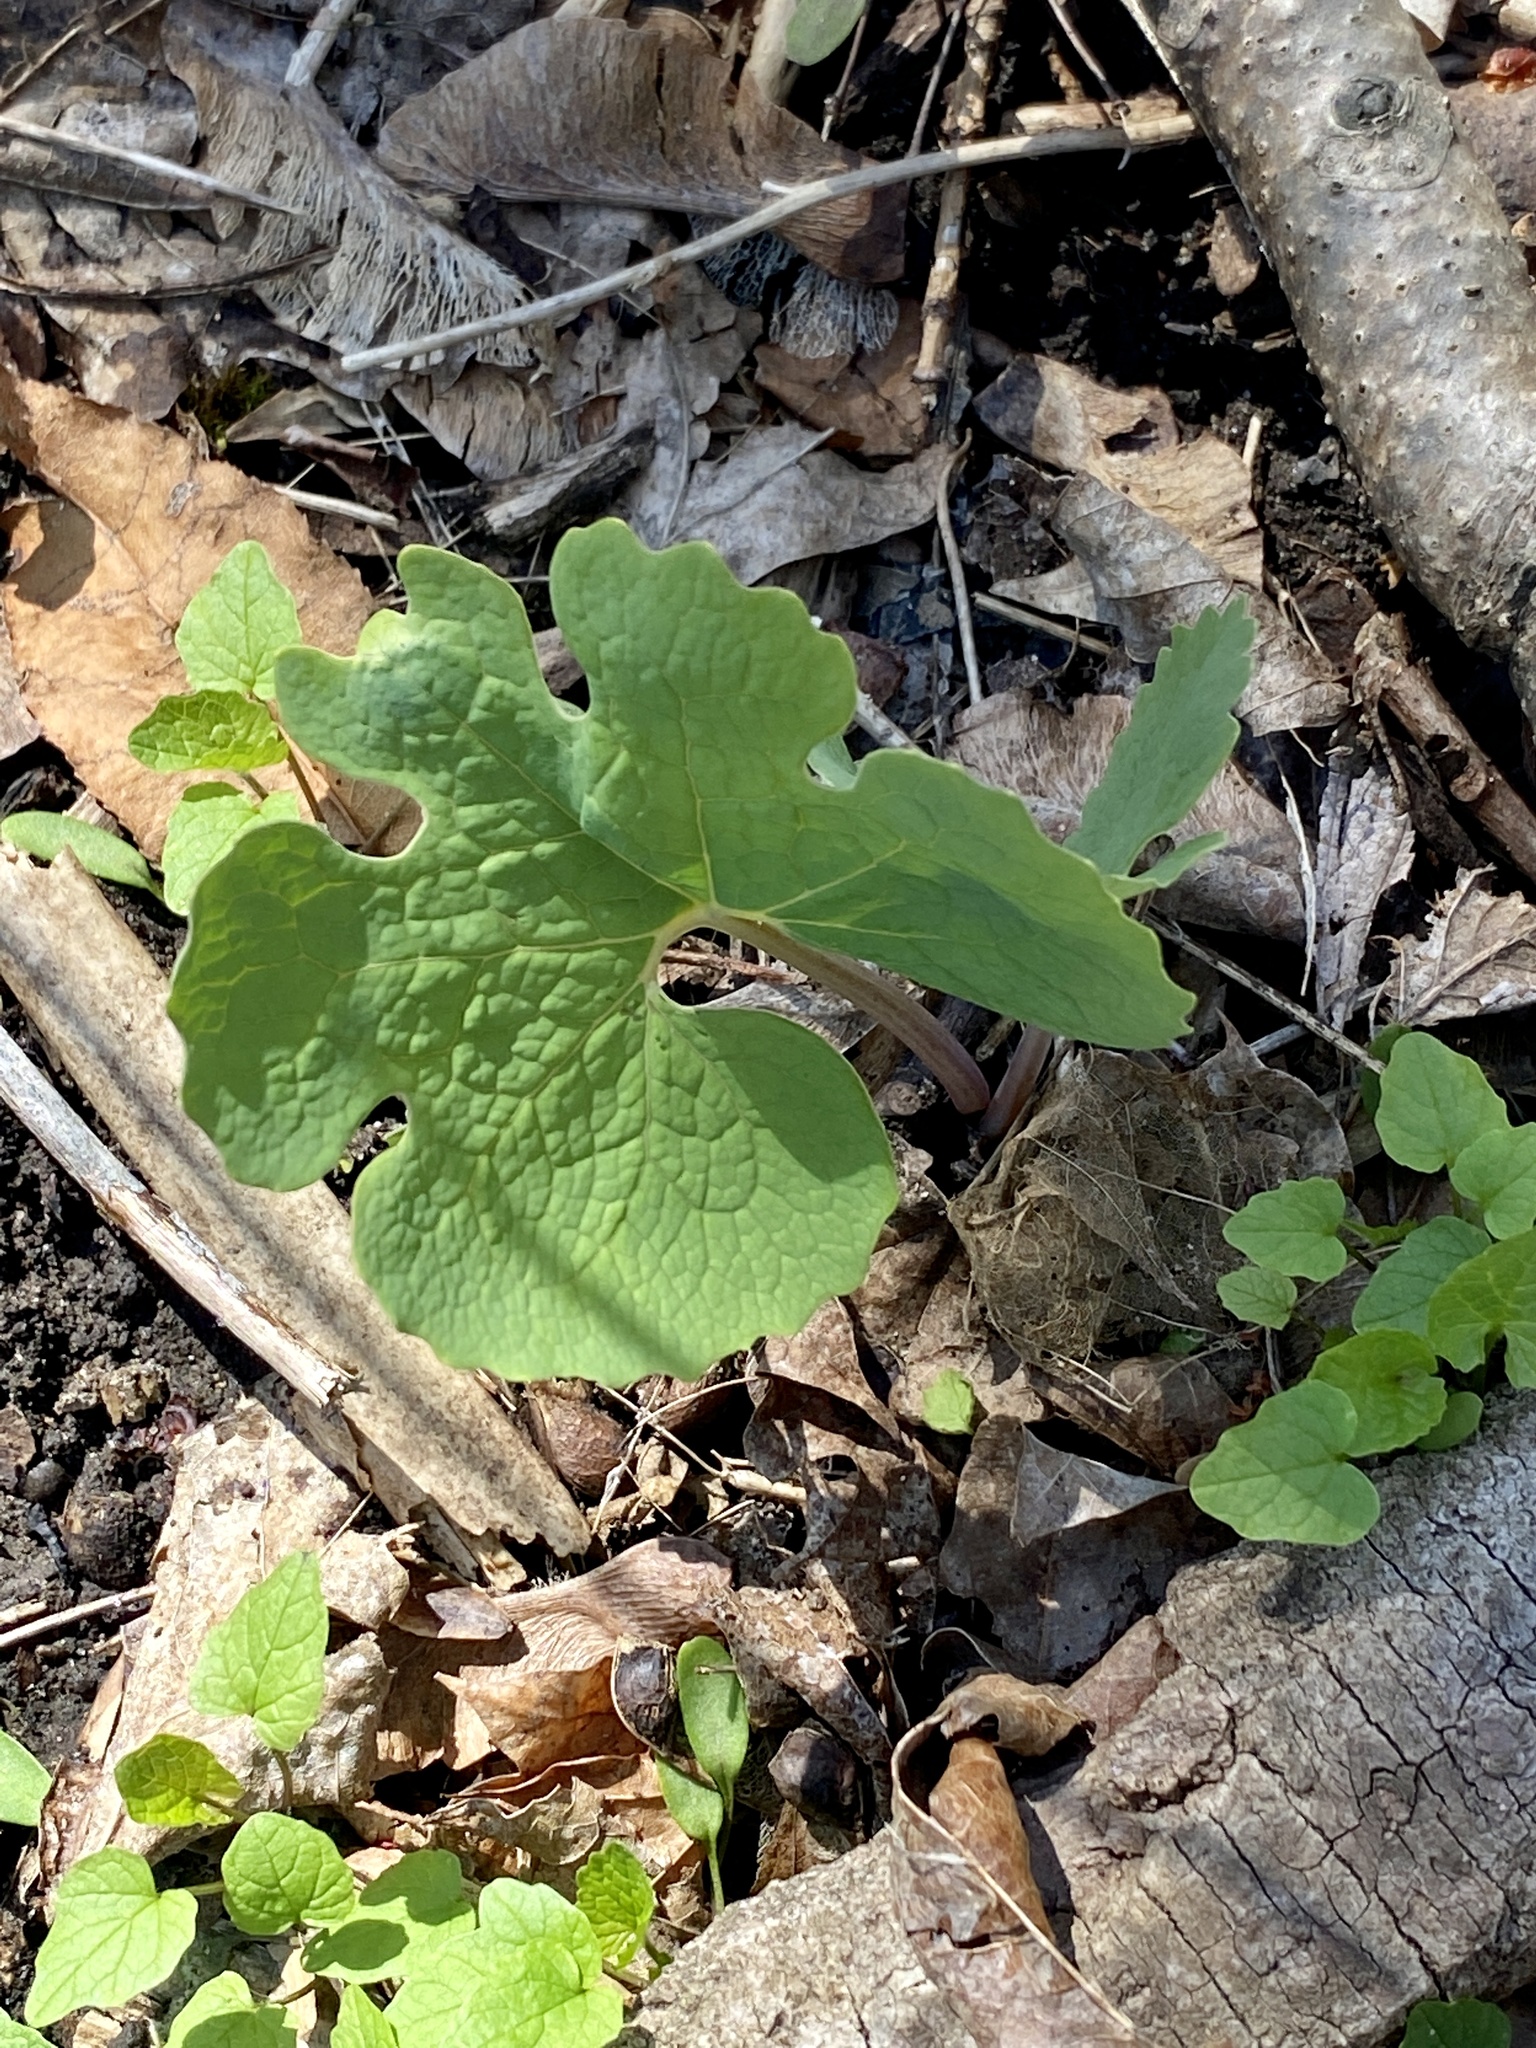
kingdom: Plantae
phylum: Tracheophyta
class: Magnoliopsida
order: Ranunculales
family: Papaveraceae
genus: Sanguinaria
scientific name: Sanguinaria canadensis
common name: Bloodroot
